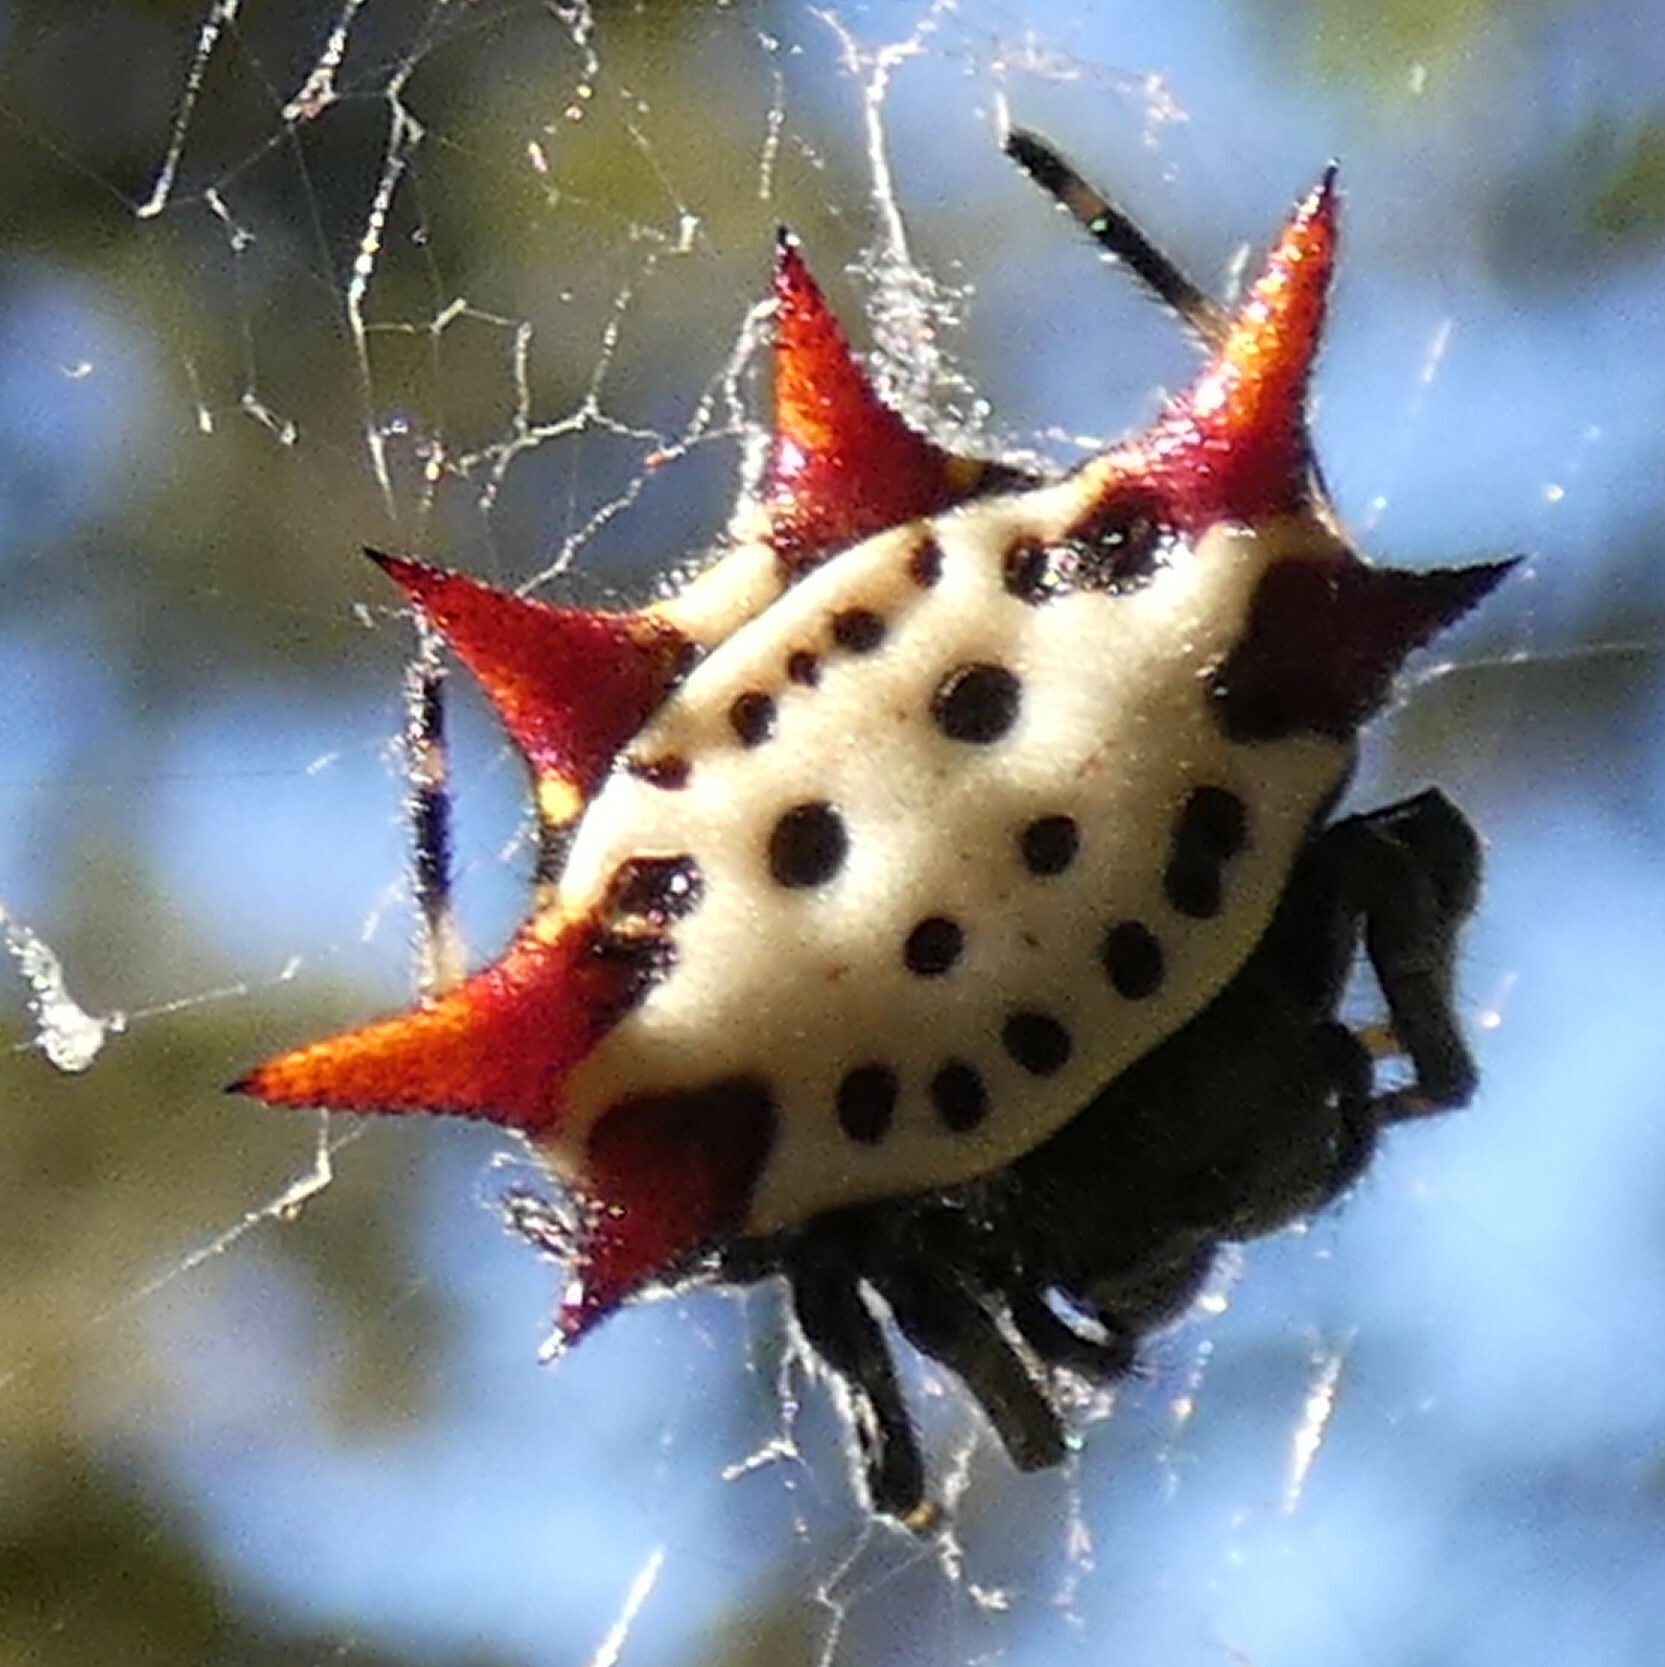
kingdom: Animalia
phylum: Arthropoda
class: Arachnida
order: Araneae
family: Araneidae
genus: Gasteracantha
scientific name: Gasteracantha cancriformis
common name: Orb weavers
